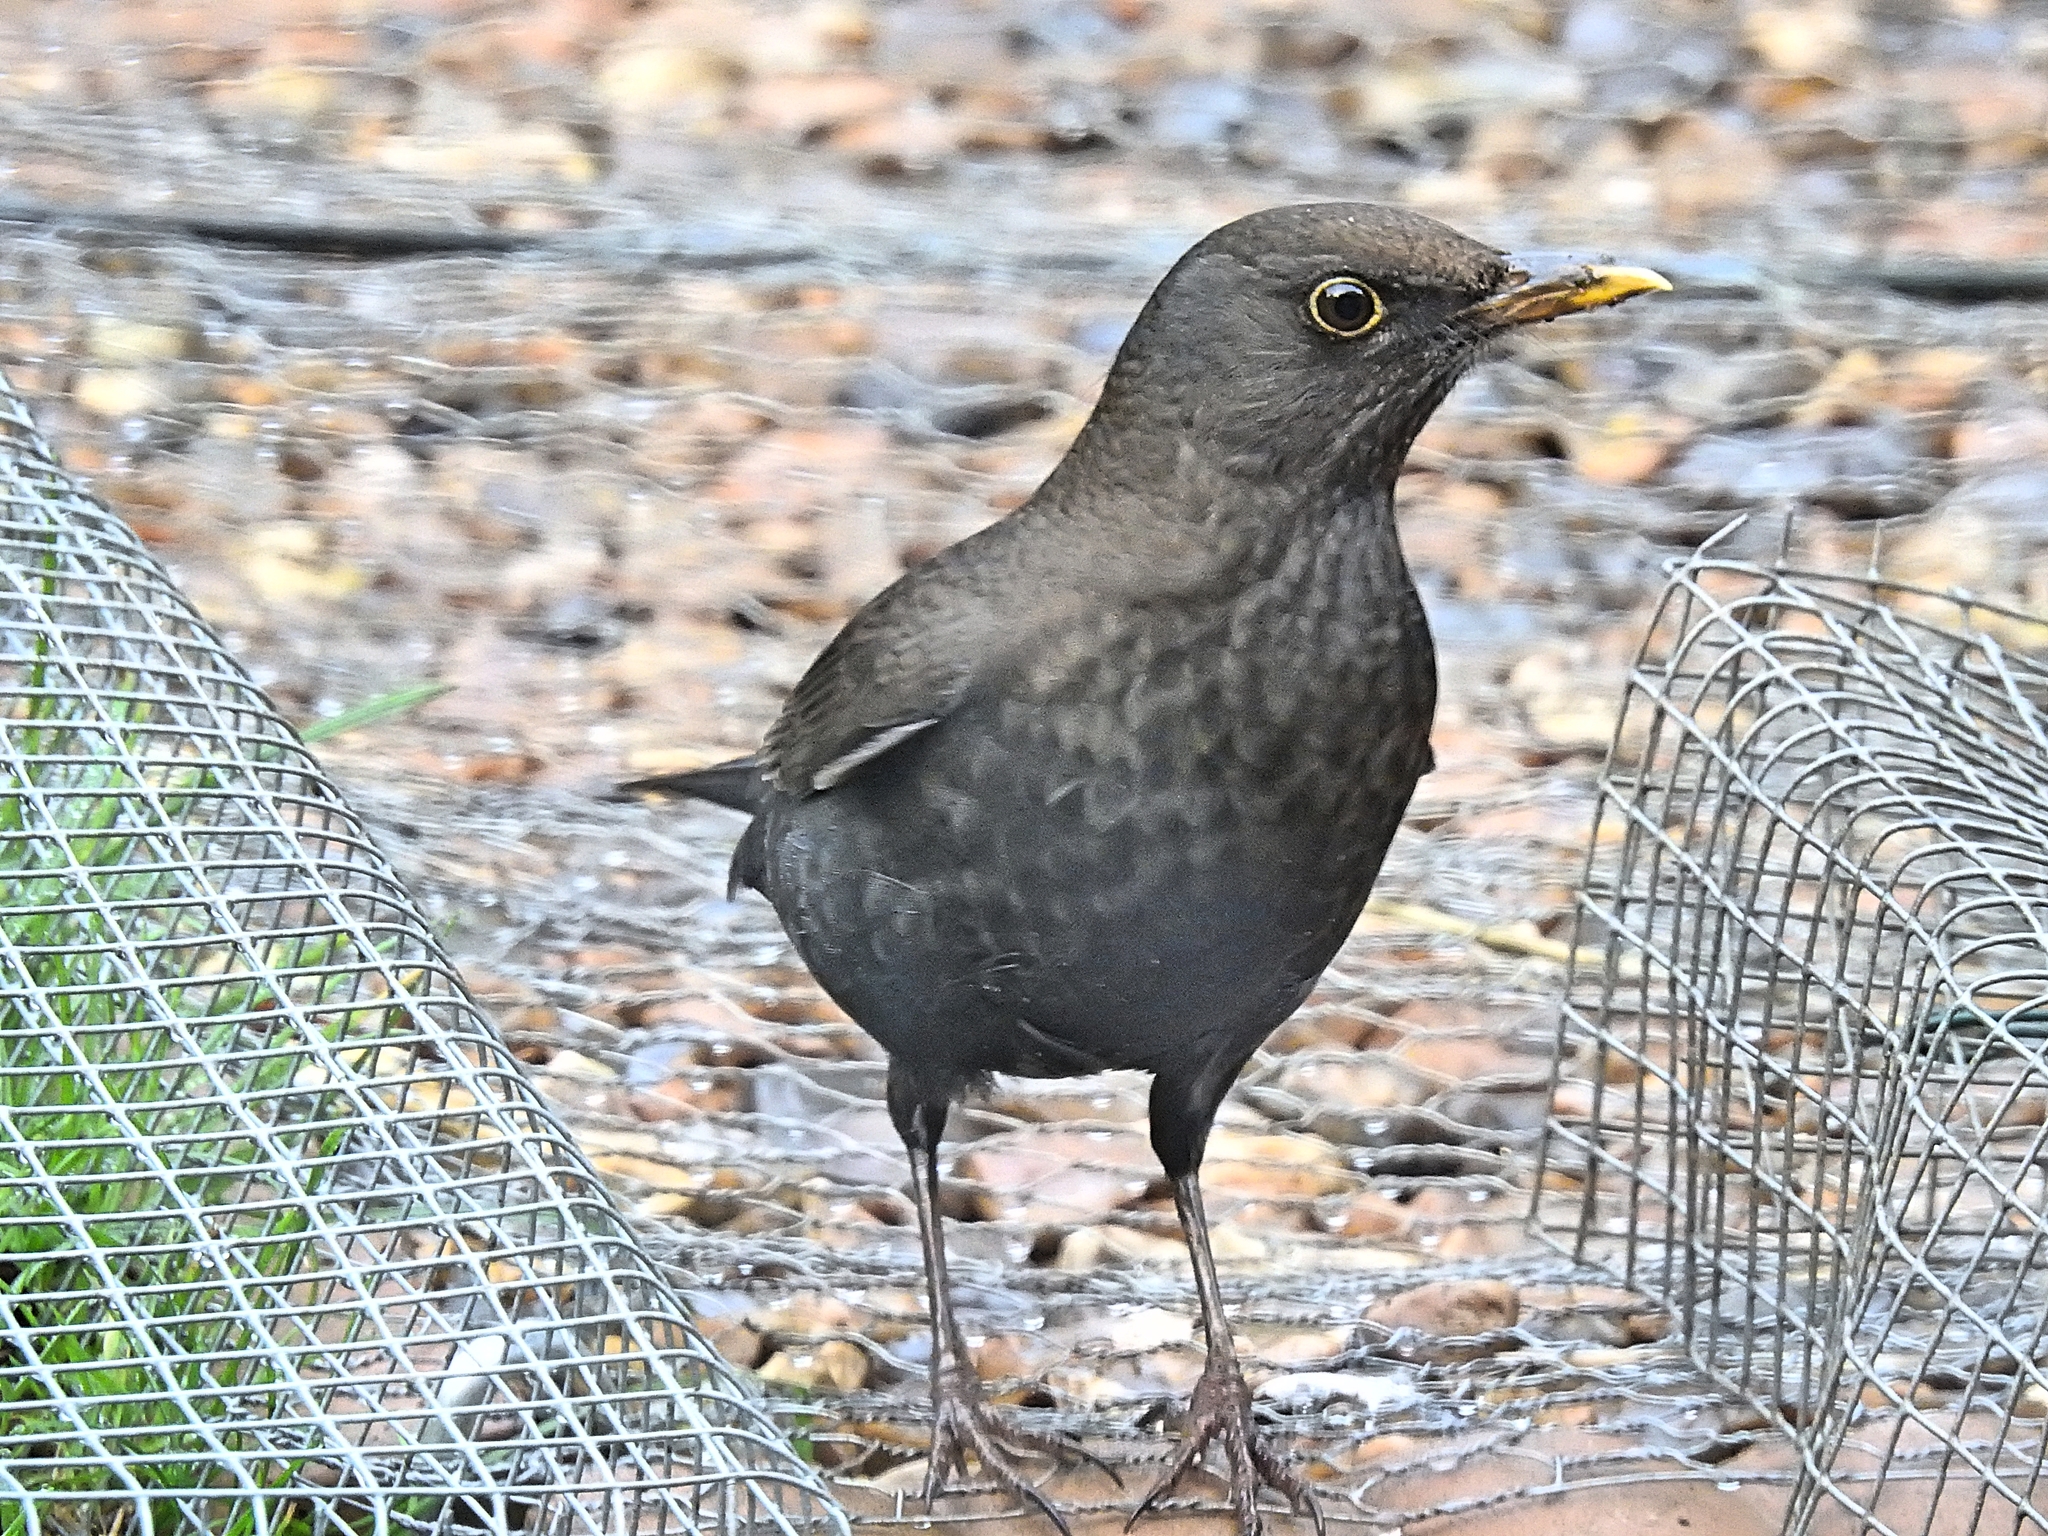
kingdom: Animalia
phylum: Chordata
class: Aves
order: Passeriformes
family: Turdidae
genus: Turdus
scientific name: Turdus merula
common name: Common blackbird
